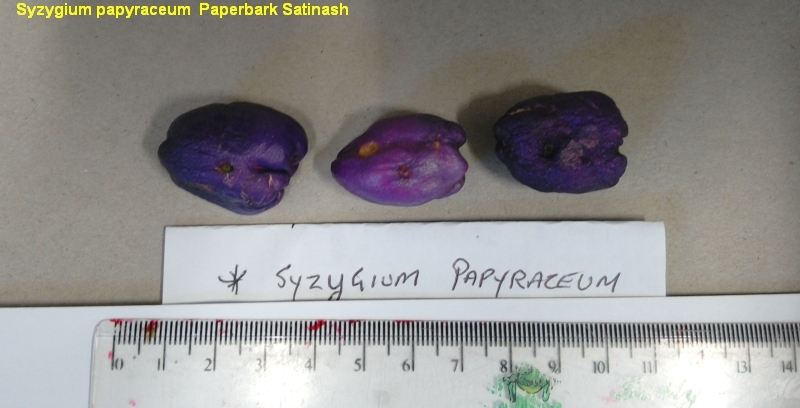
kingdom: Plantae
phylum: Tracheophyta
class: Magnoliopsida
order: Myrtales
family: Myrtaceae
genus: Syzygium
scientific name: Syzygium papyraceum
